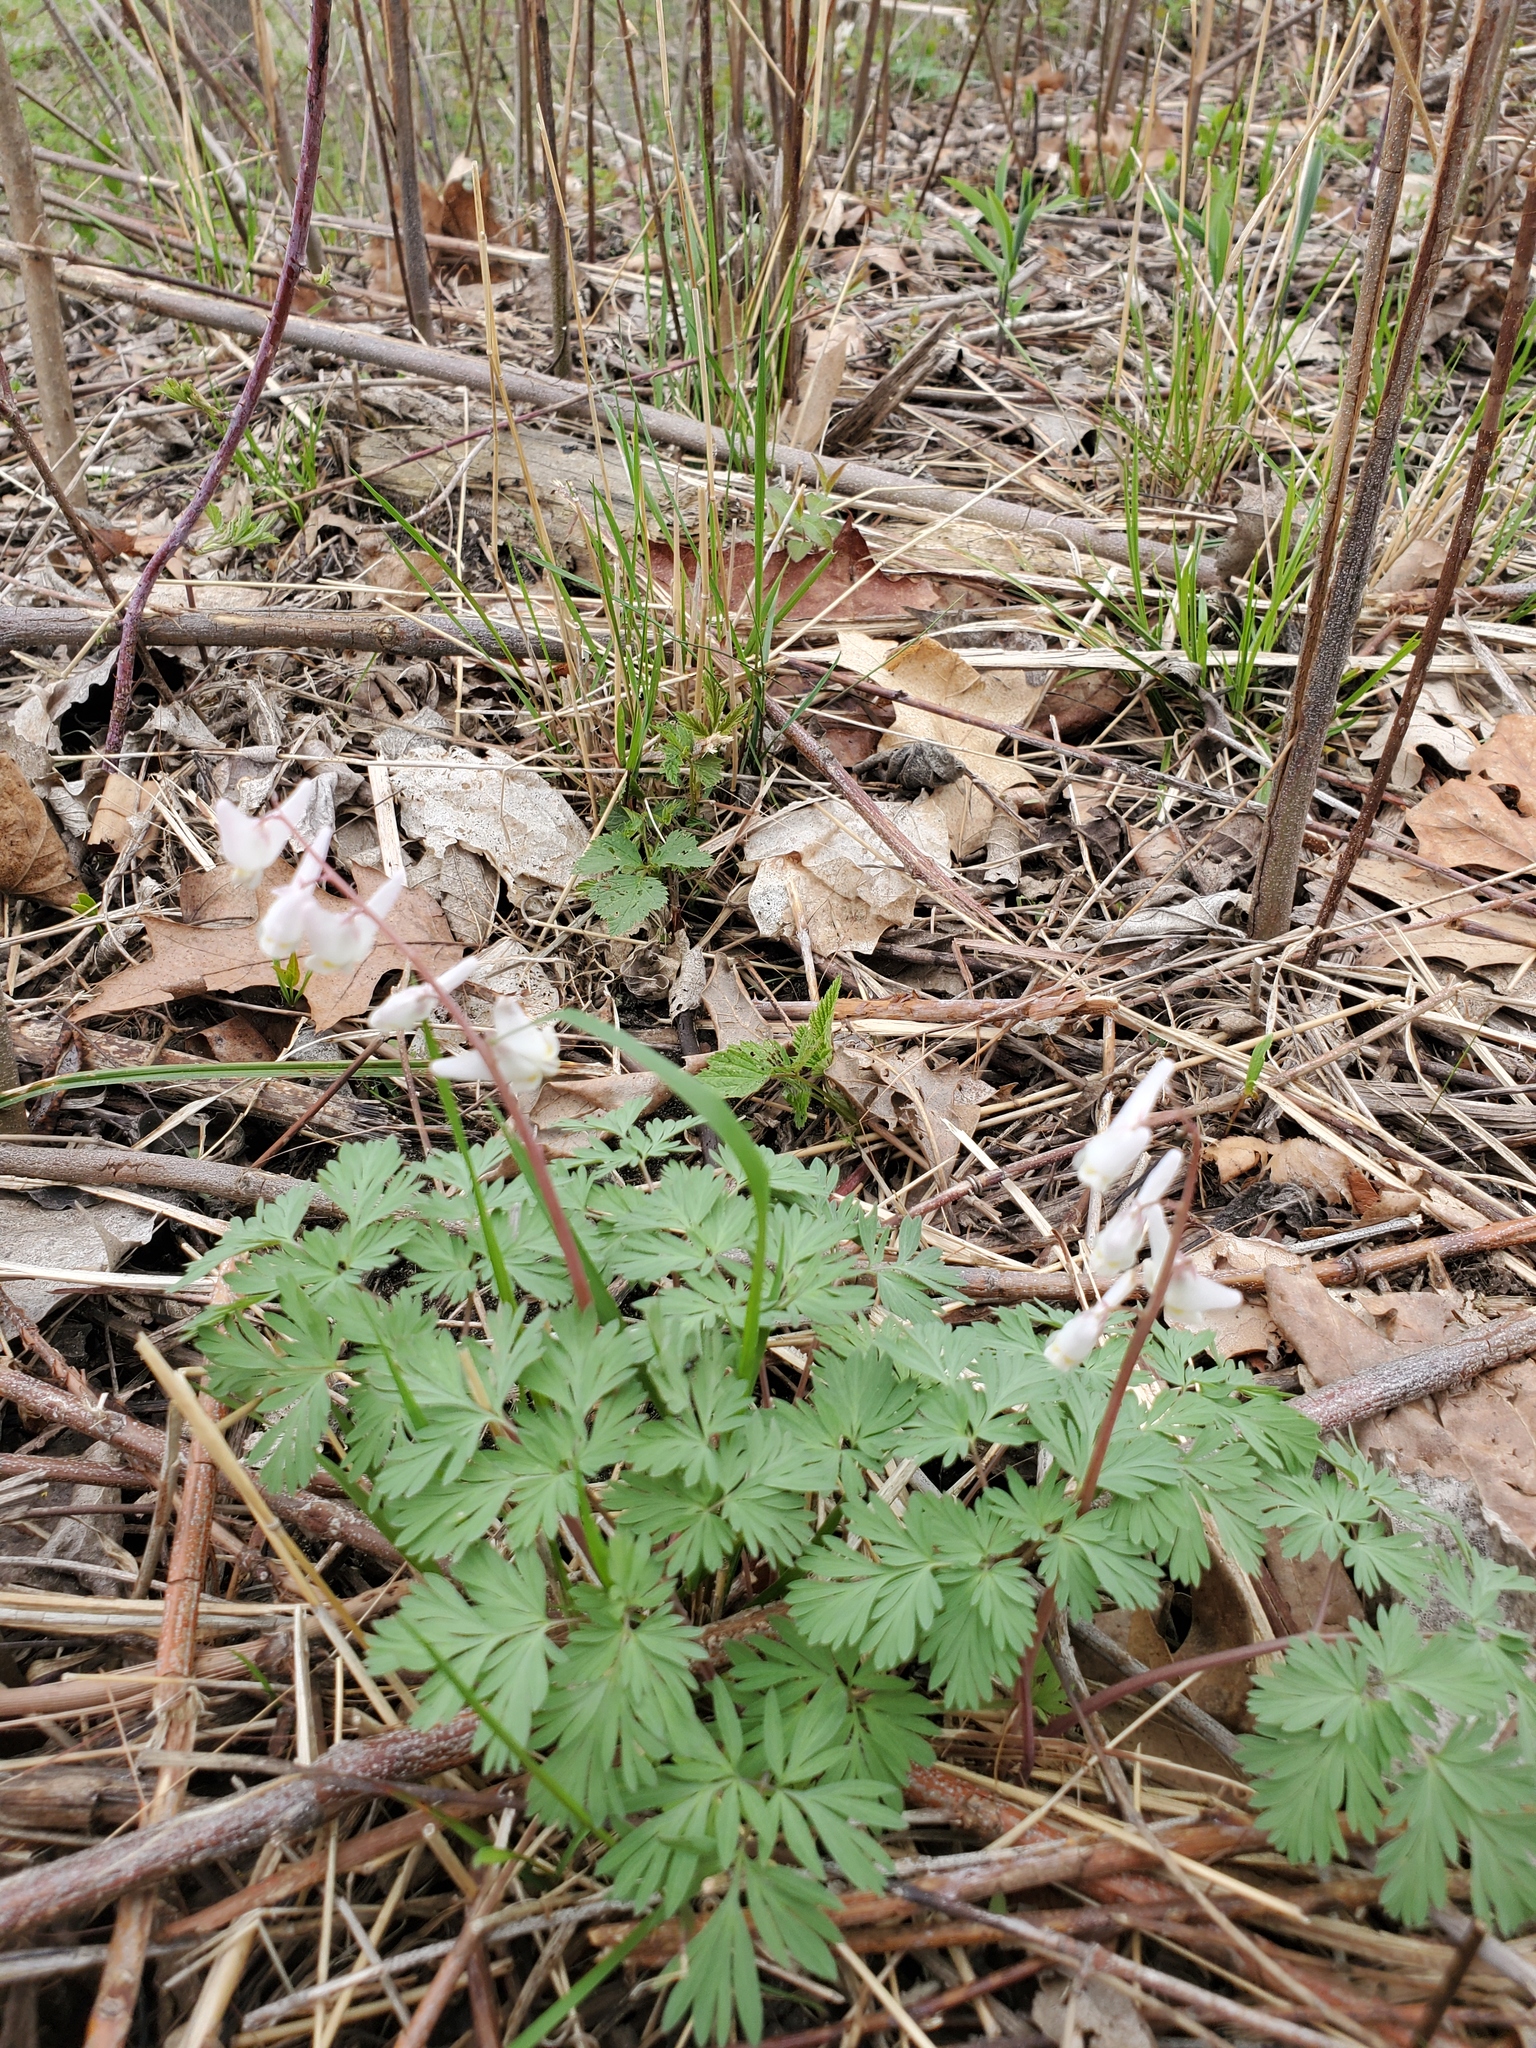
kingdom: Plantae
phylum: Tracheophyta
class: Magnoliopsida
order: Ranunculales
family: Papaveraceae
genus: Dicentra
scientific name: Dicentra cucullaria
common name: Dutchman's breeches
